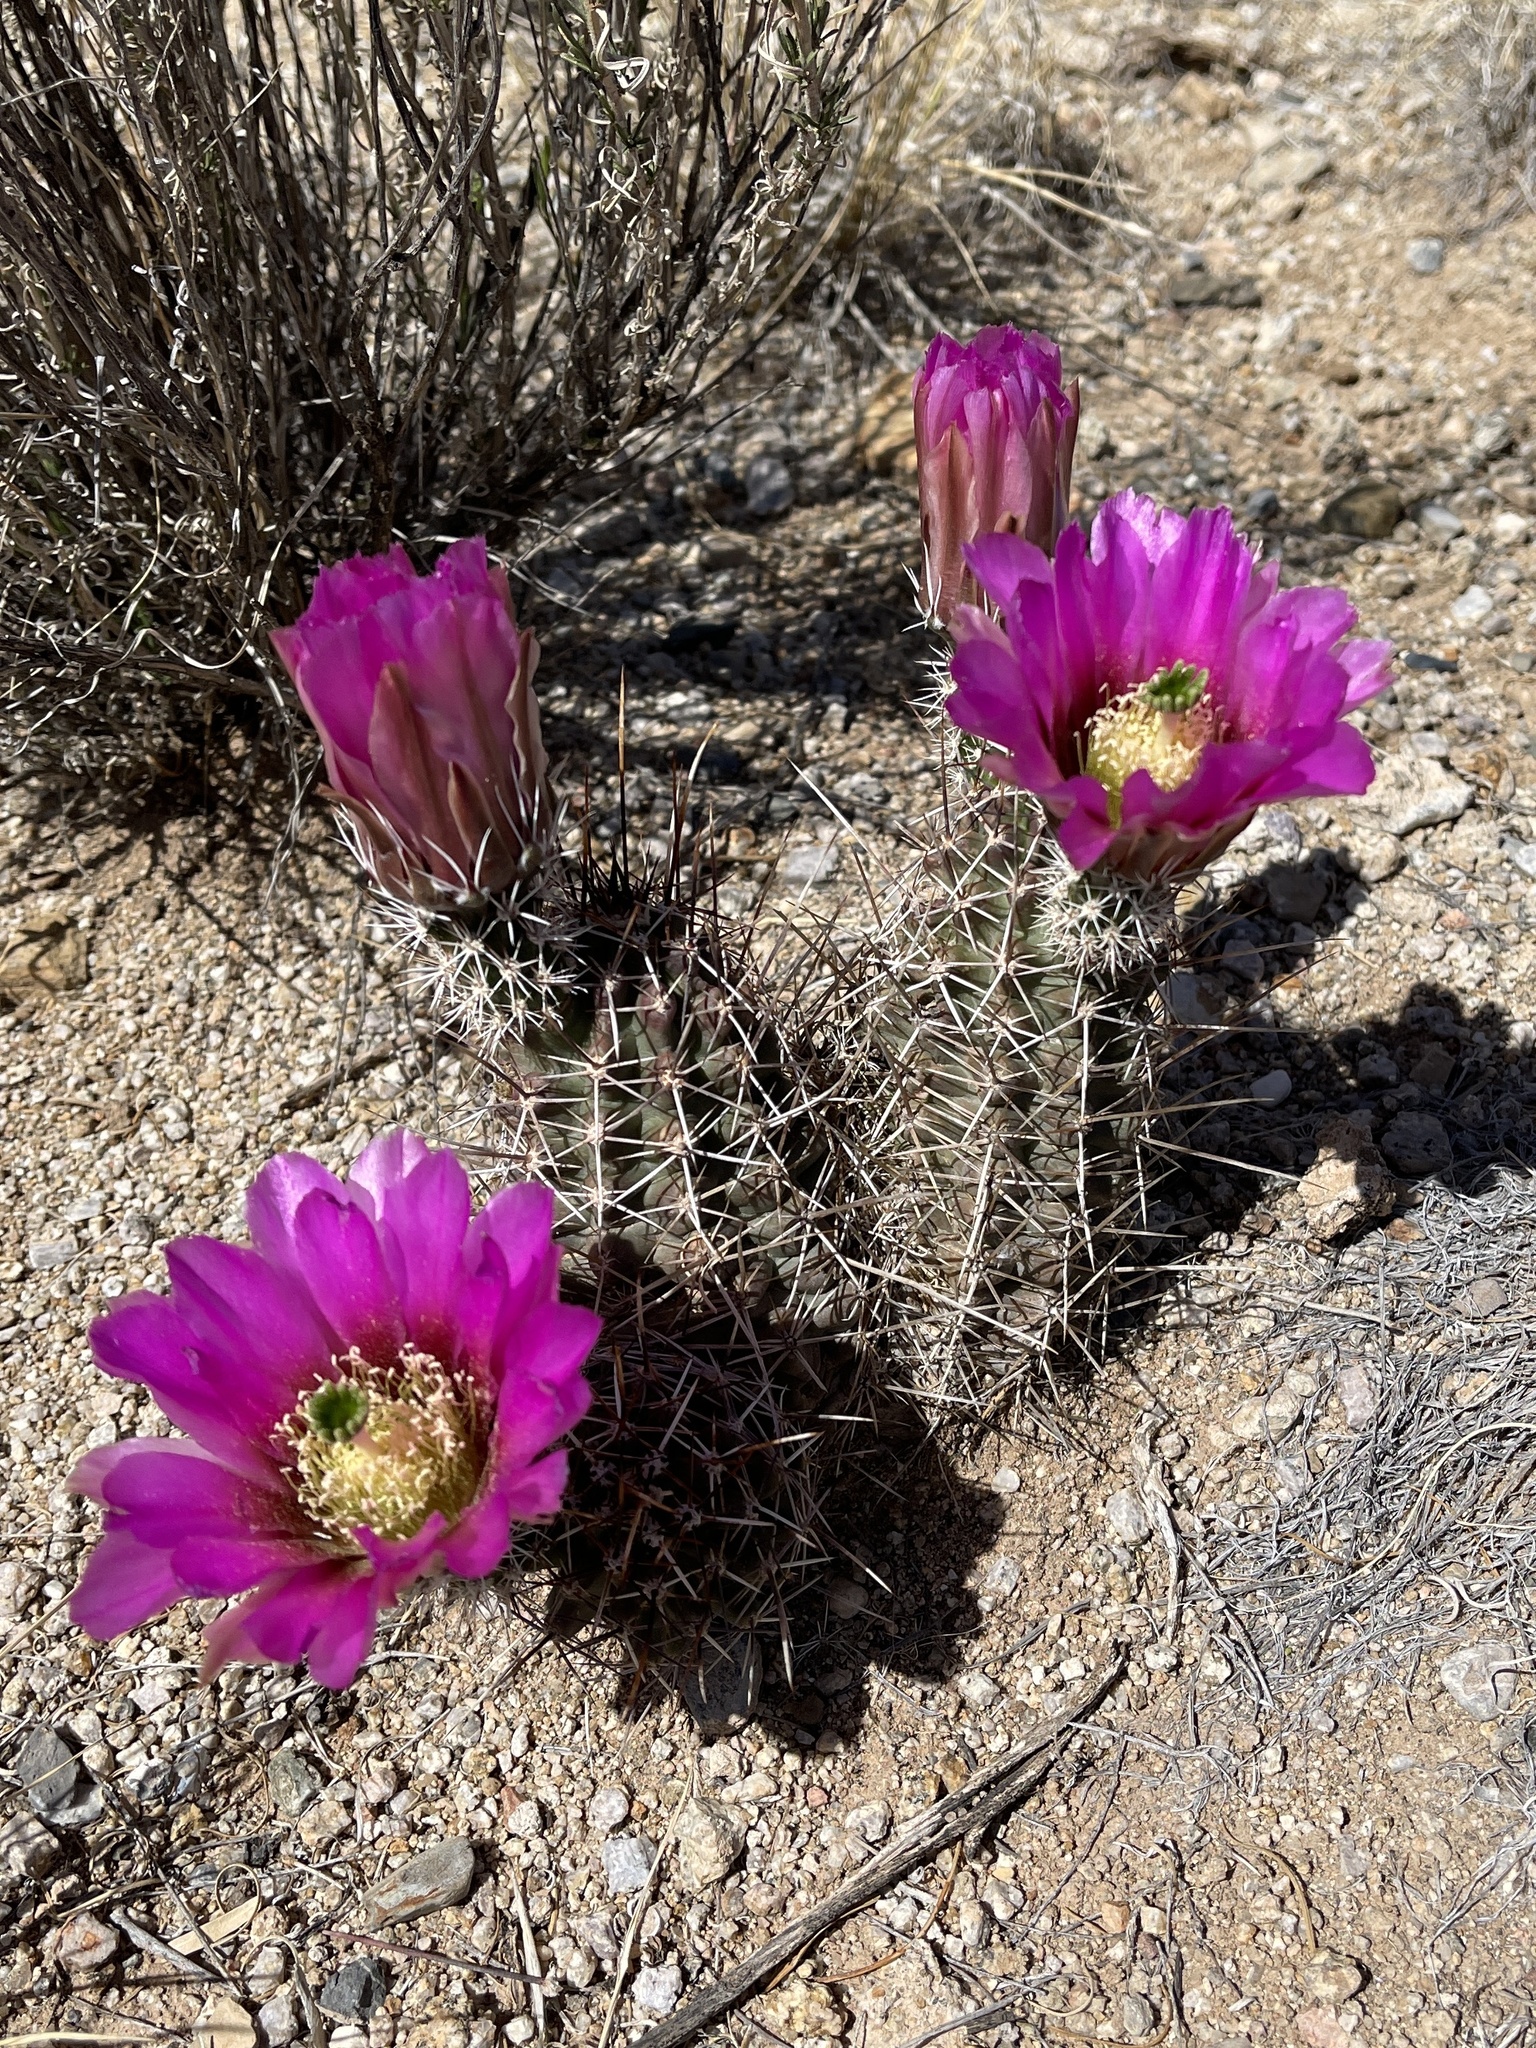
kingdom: Plantae
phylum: Tracheophyta
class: Magnoliopsida
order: Caryophyllales
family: Cactaceae
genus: Echinocereus
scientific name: Echinocereus fendleri
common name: Fendler's hedgehog cactus
